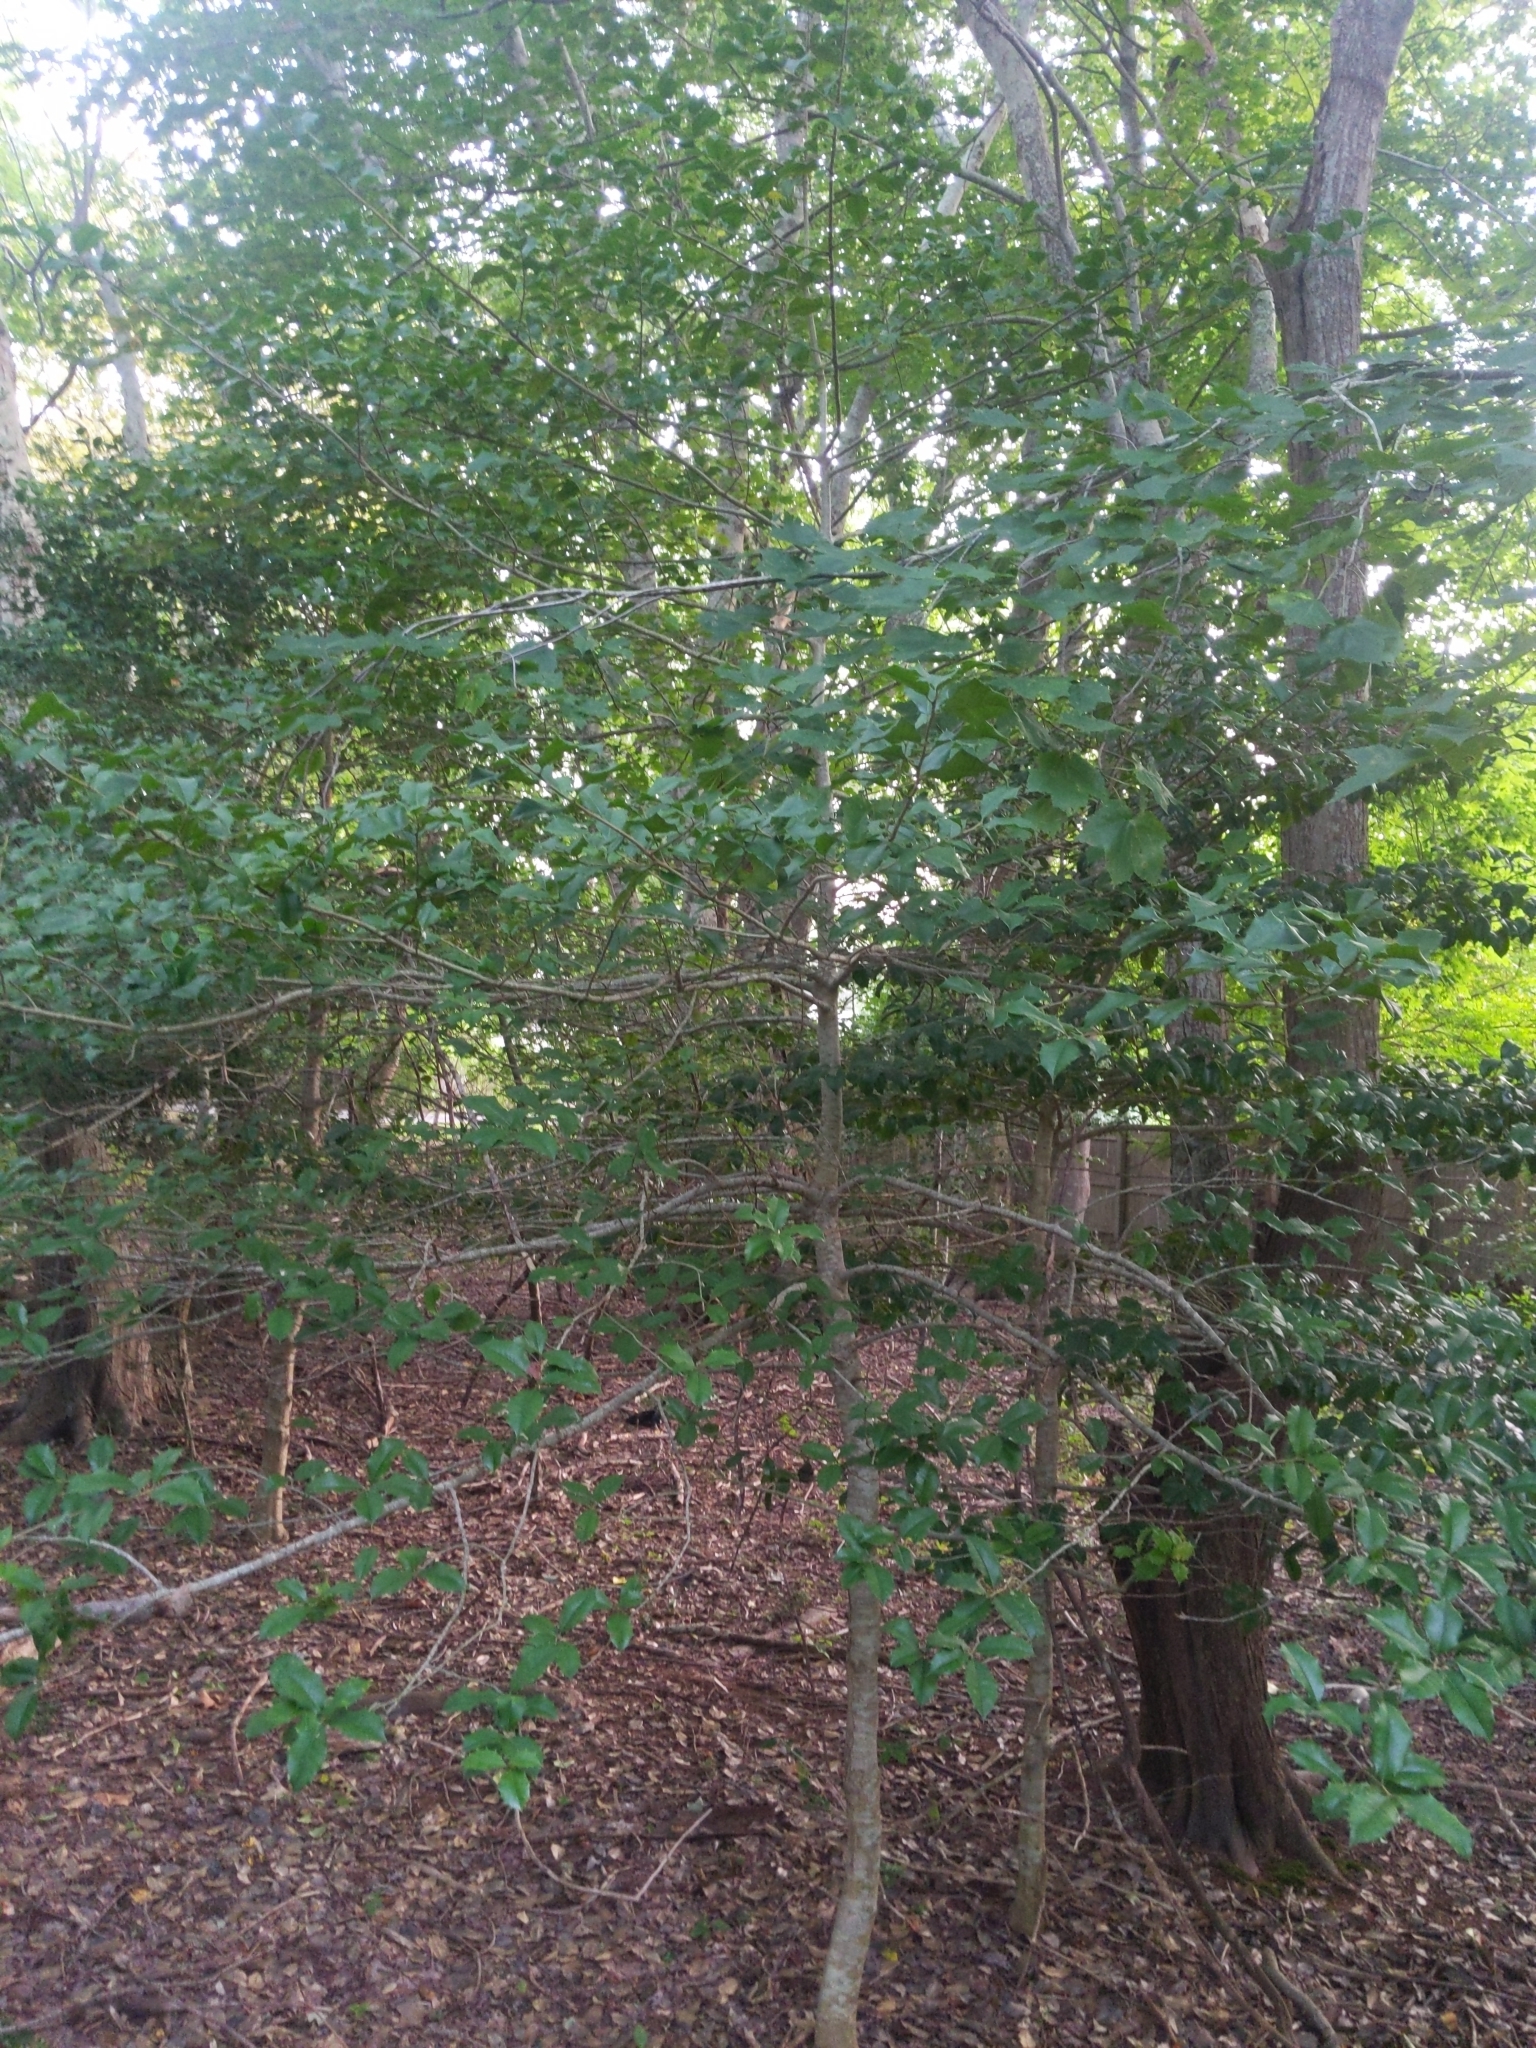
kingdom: Plantae
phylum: Tracheophyta
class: Magnoliopsida
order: Aquifoliales
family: Aquifoliaceae
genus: Ilex
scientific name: Ilex opaca
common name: American holly
